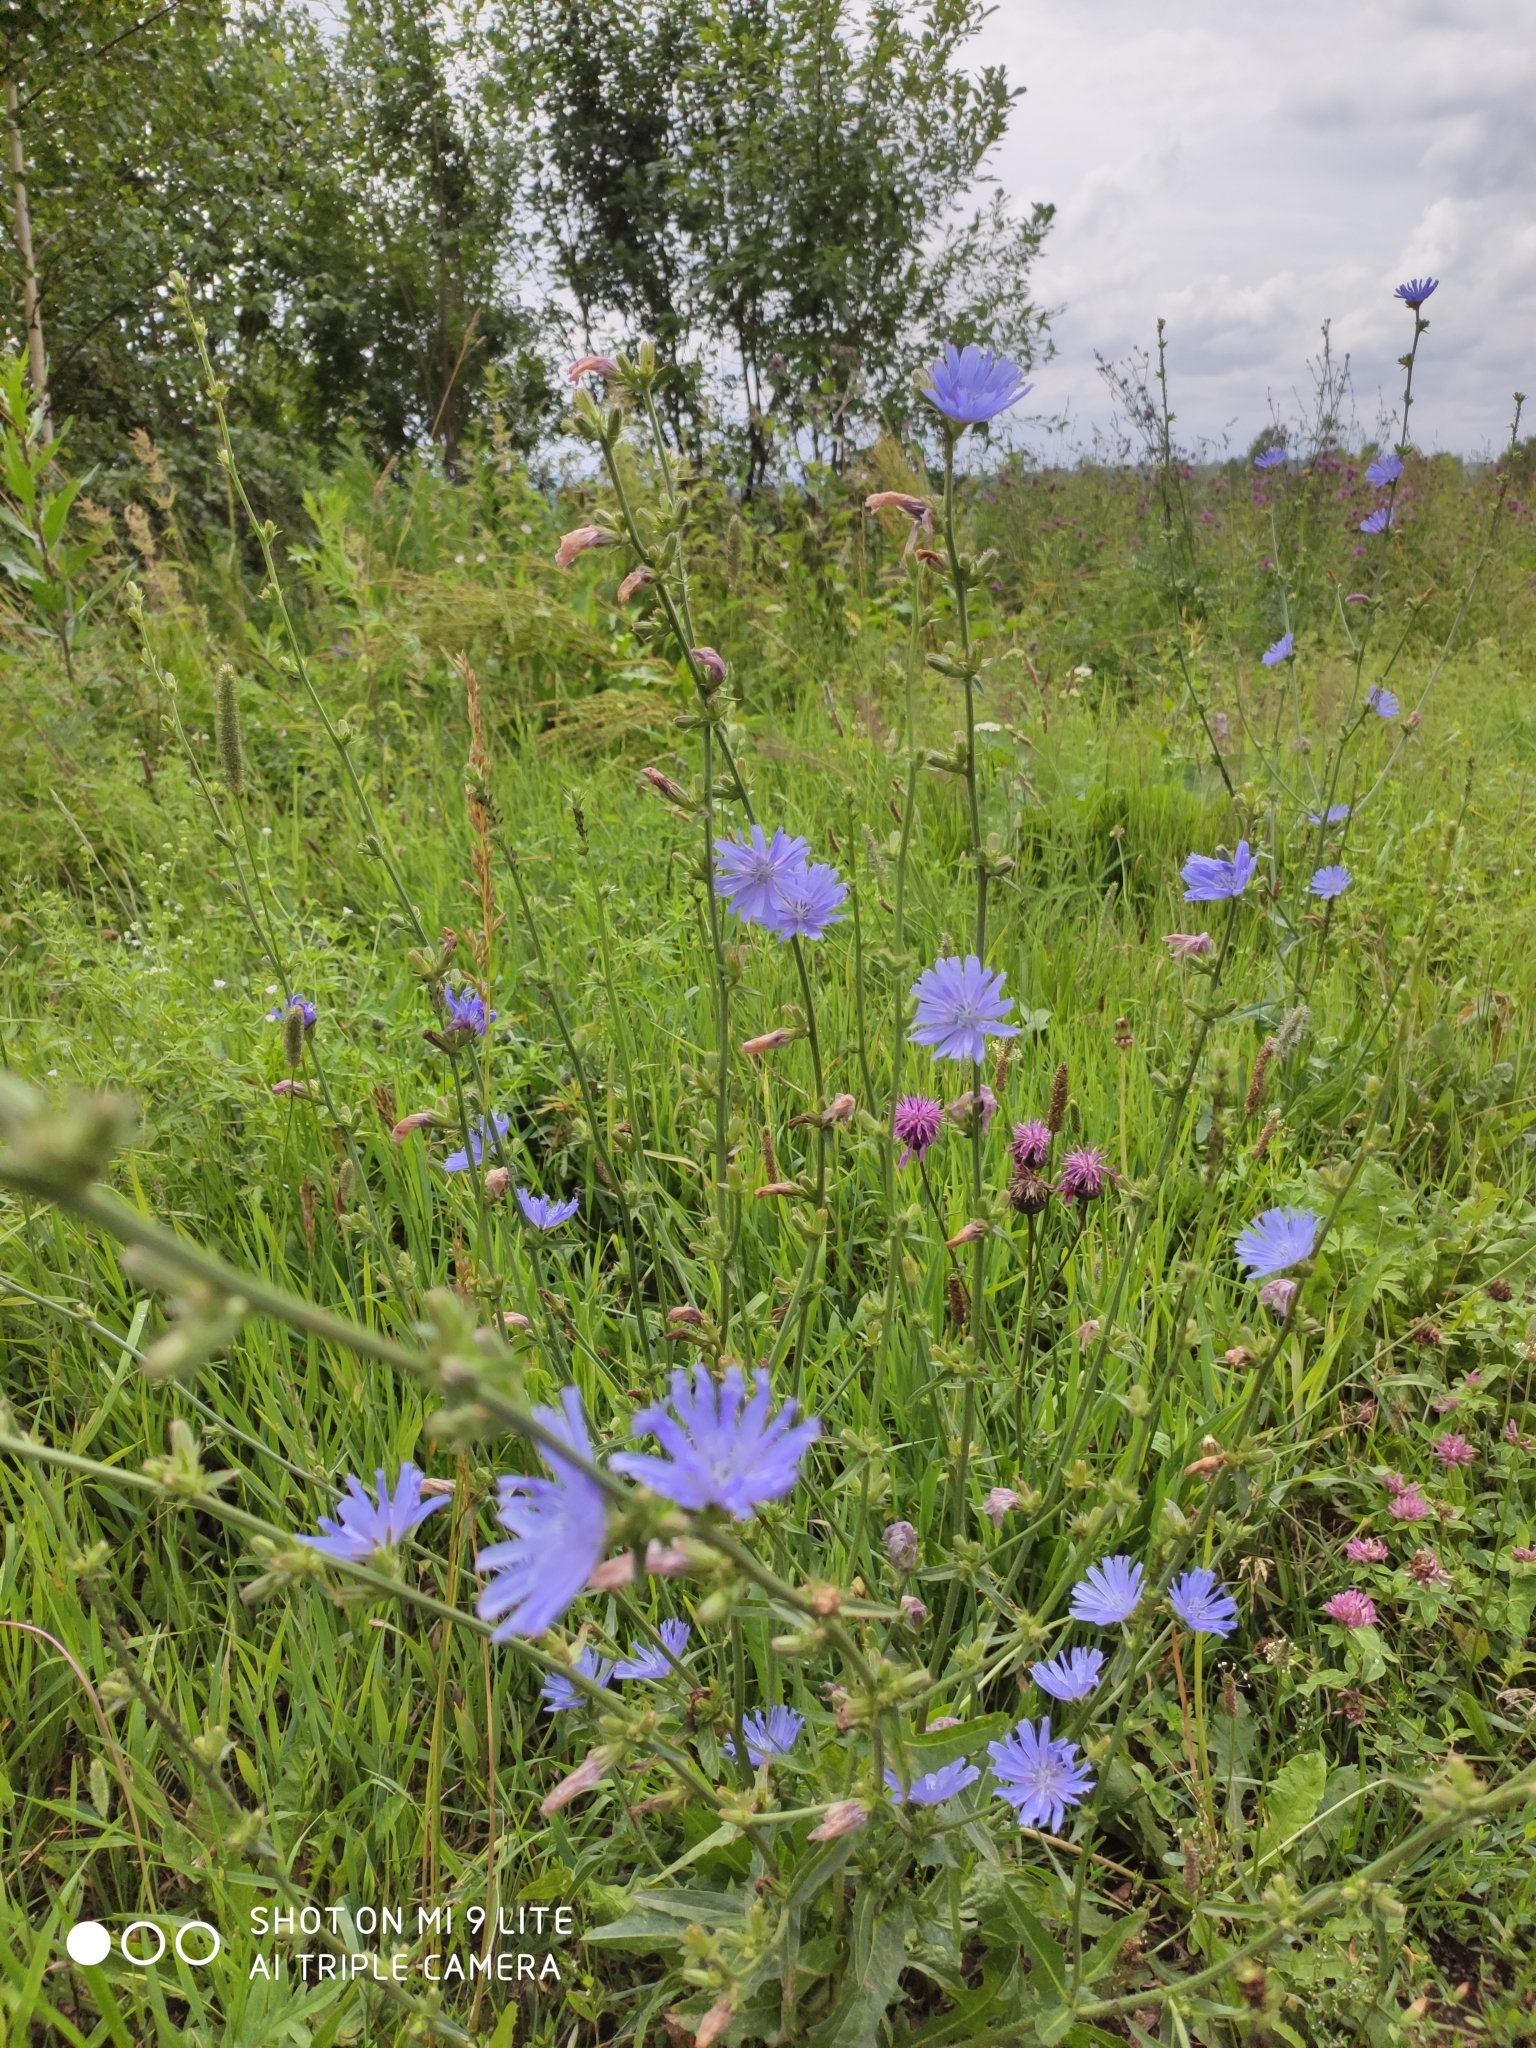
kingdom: Plantae
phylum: Tracheophyta
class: Magnoliopsida
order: Asterales
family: Asteraceae
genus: Cichorium
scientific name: Cichorium intybus
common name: Chicory
